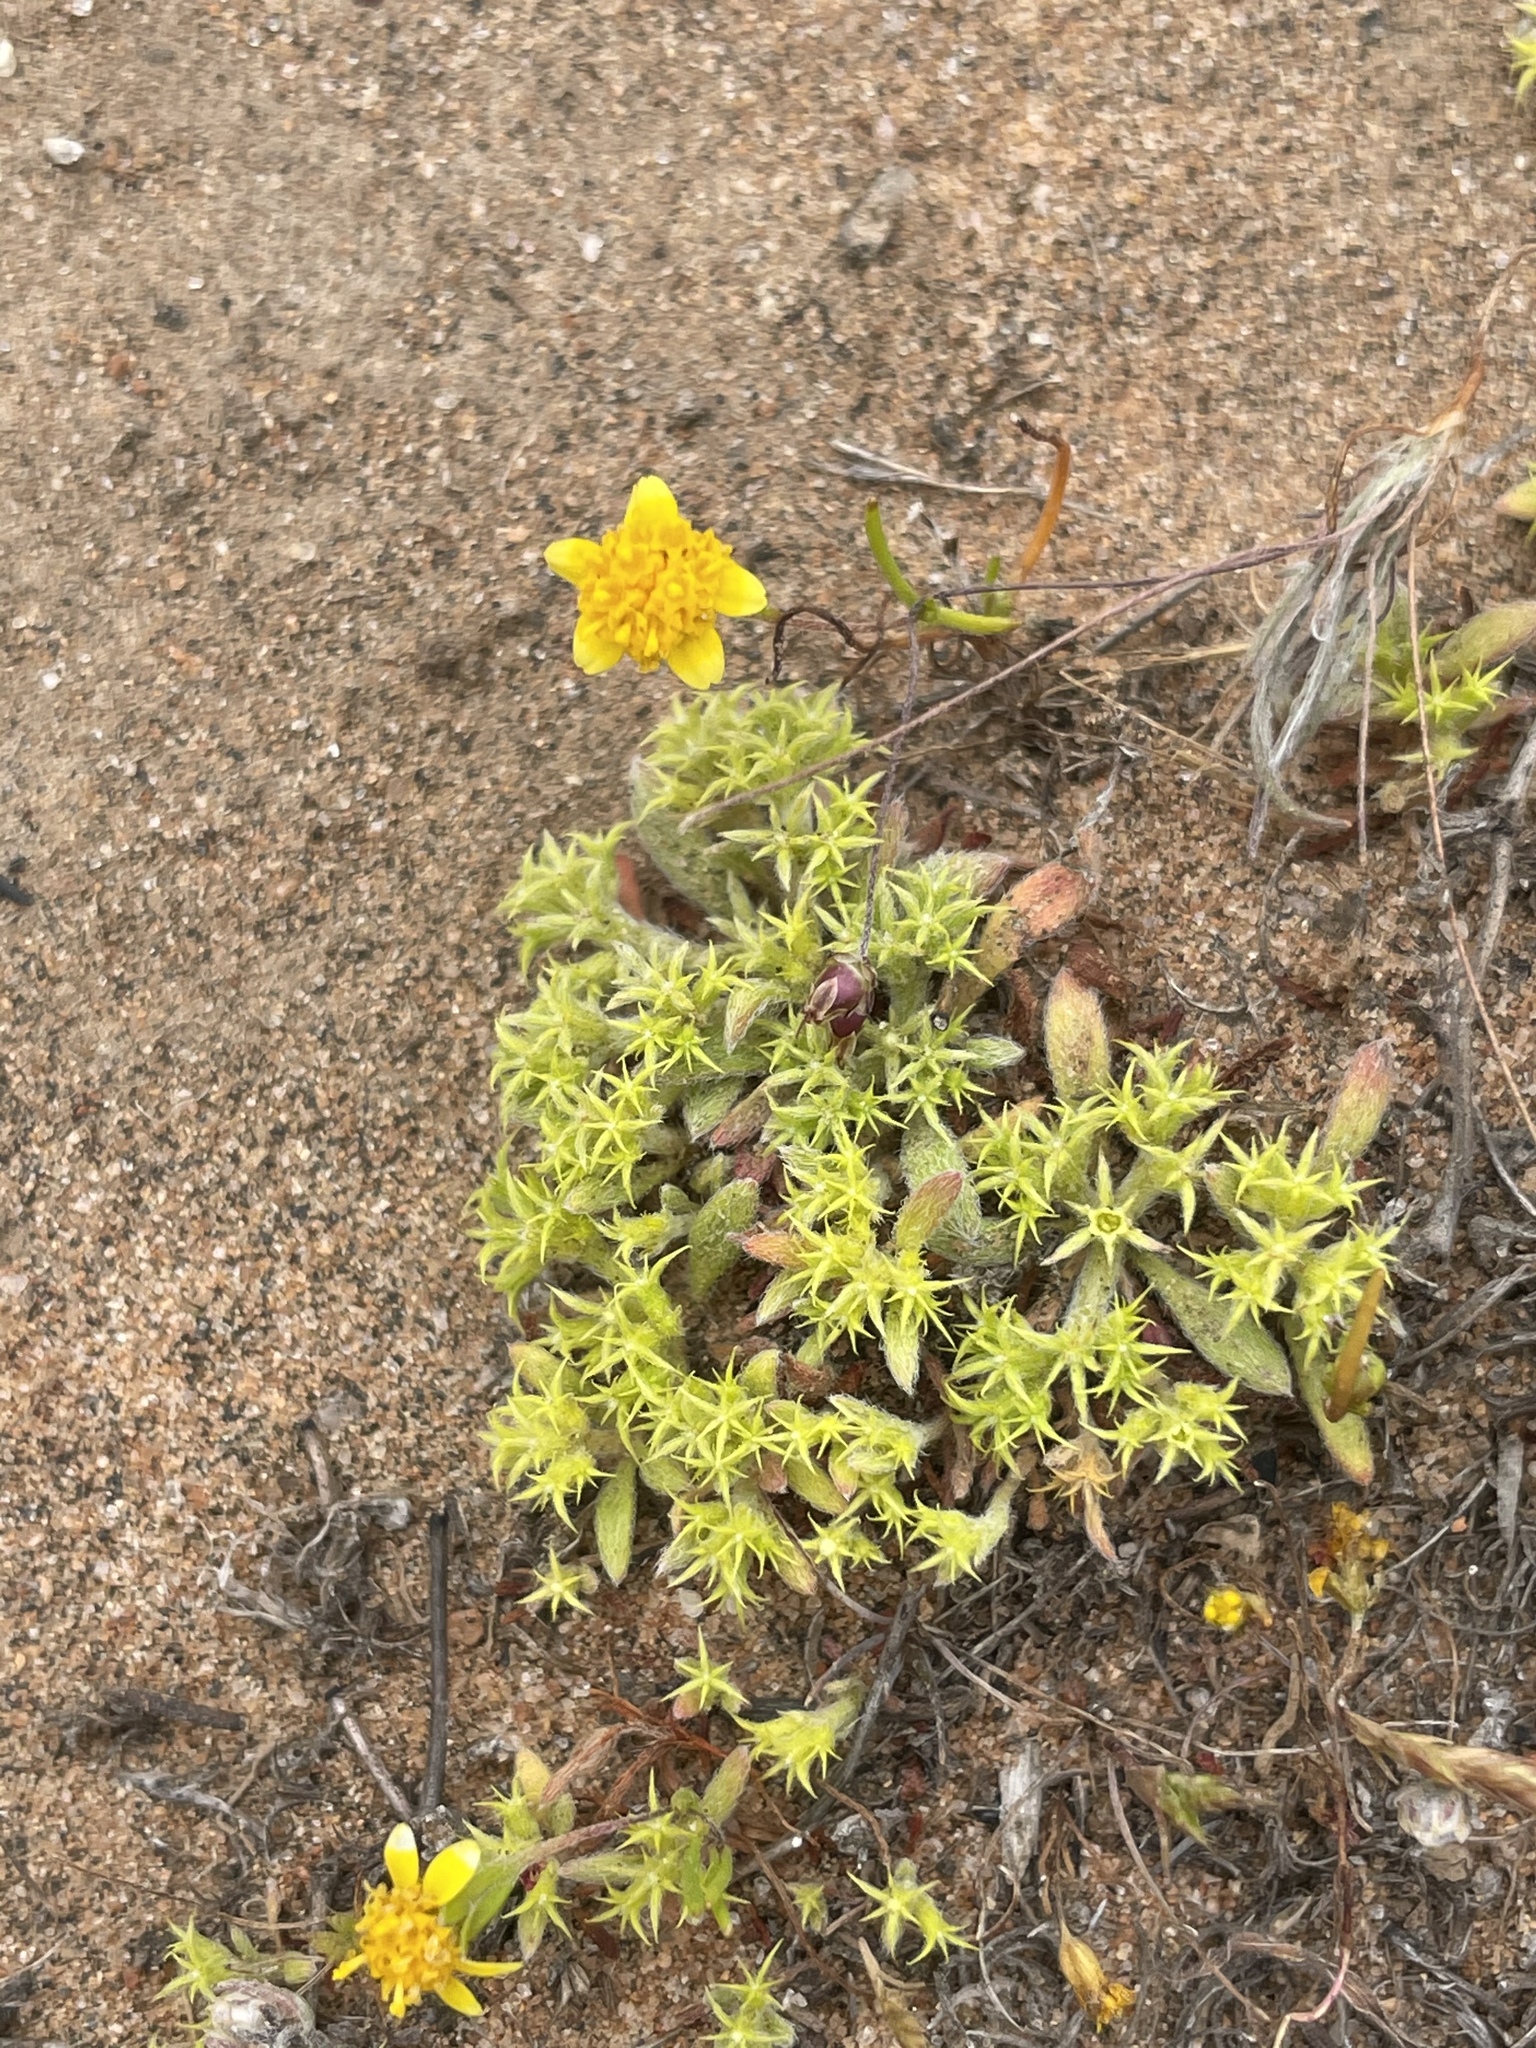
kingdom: Plantae
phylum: Tracheophyta
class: Magnoliopsida
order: Caryophyllales
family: Polygonaceae
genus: Chorizanthe
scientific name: Chorizanthe procumbens
